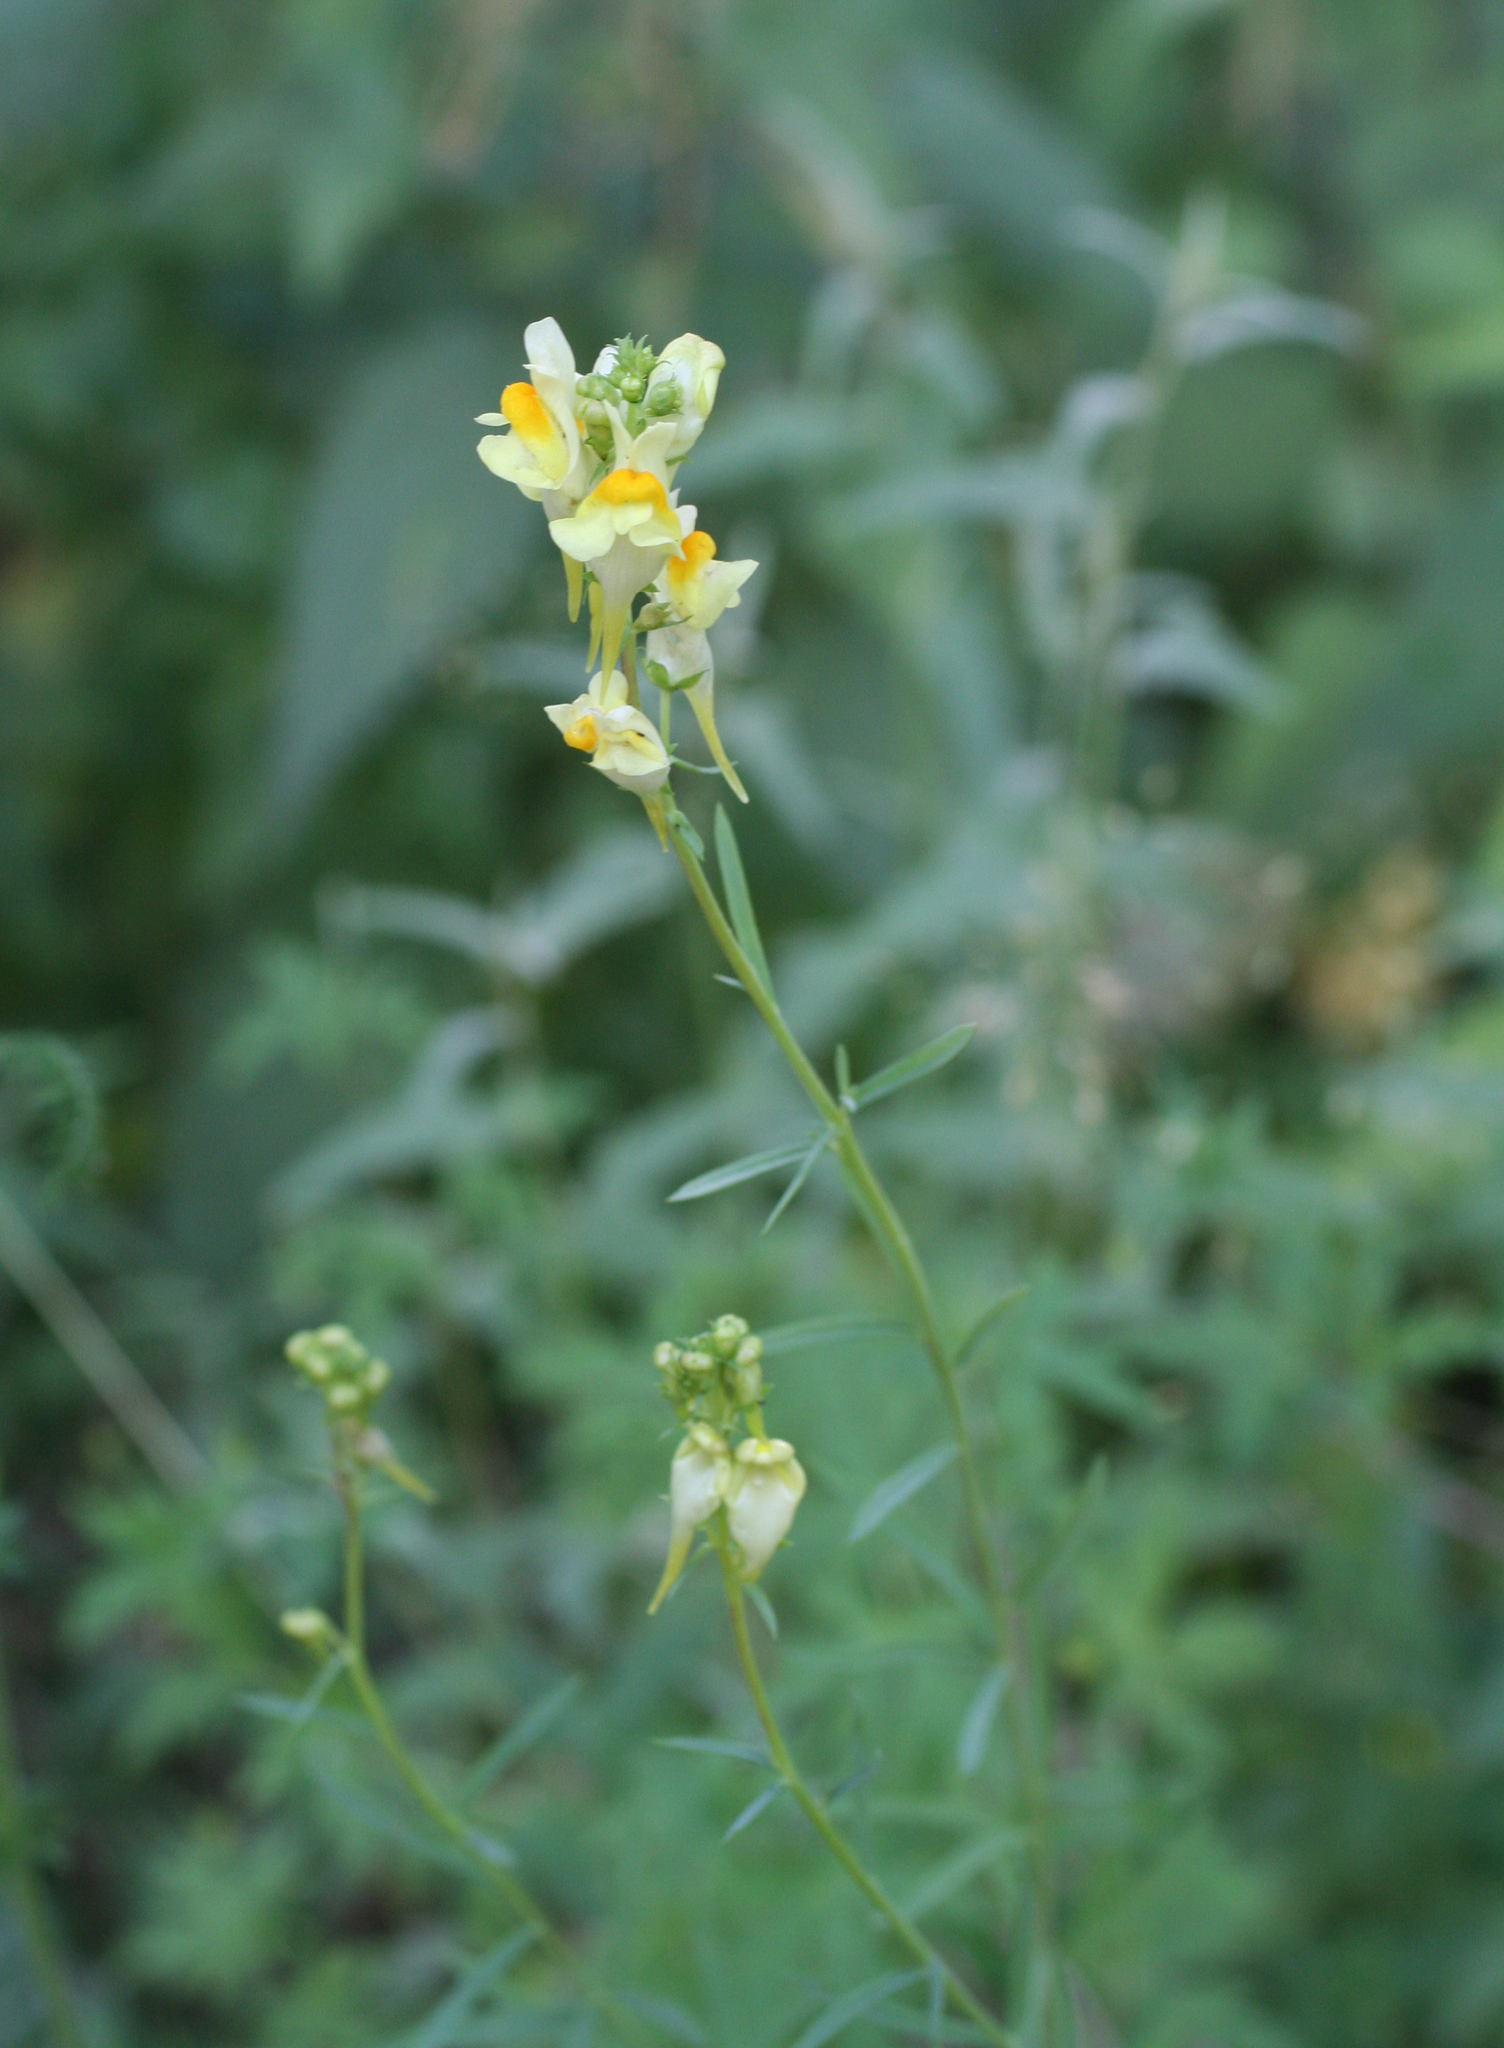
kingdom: Plantae
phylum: Tracheophyta
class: Magnoliopsida
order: Lamiales
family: Plantaginaceae
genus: Linaria
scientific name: Linaria vulgaris
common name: Butter and eggs
